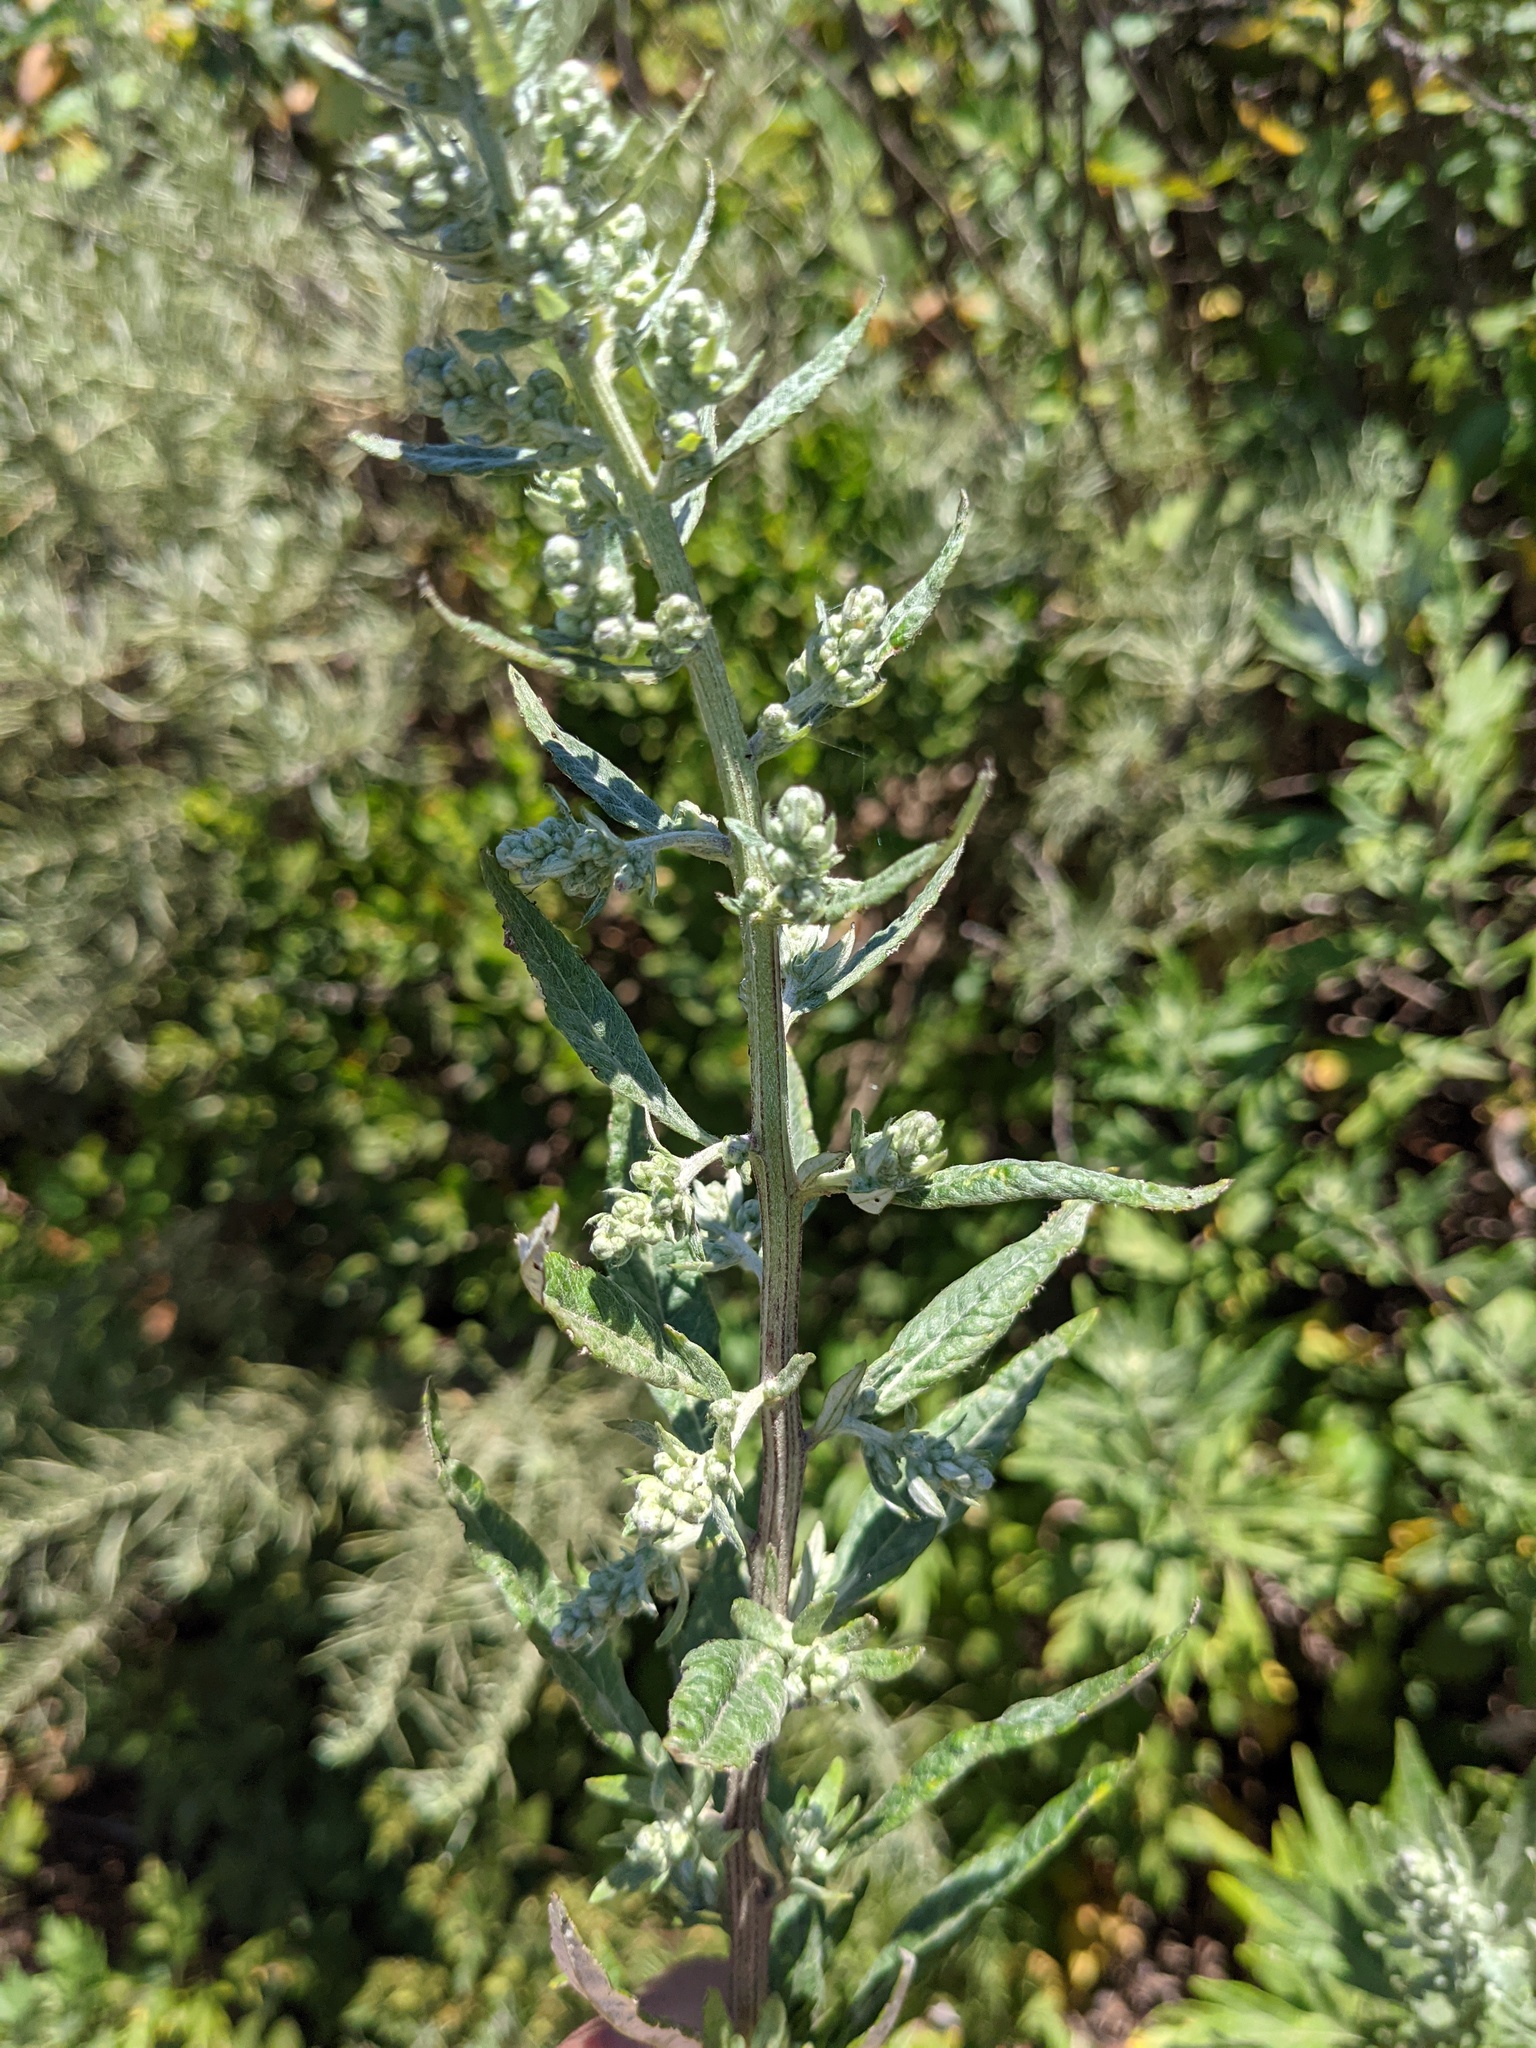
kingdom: Plantae
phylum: Tracheophyta
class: Magnoliopsida
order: Asterales
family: Asteraceae
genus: Artemisia
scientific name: Artemisia douglasiana
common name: Northwest mugwort
